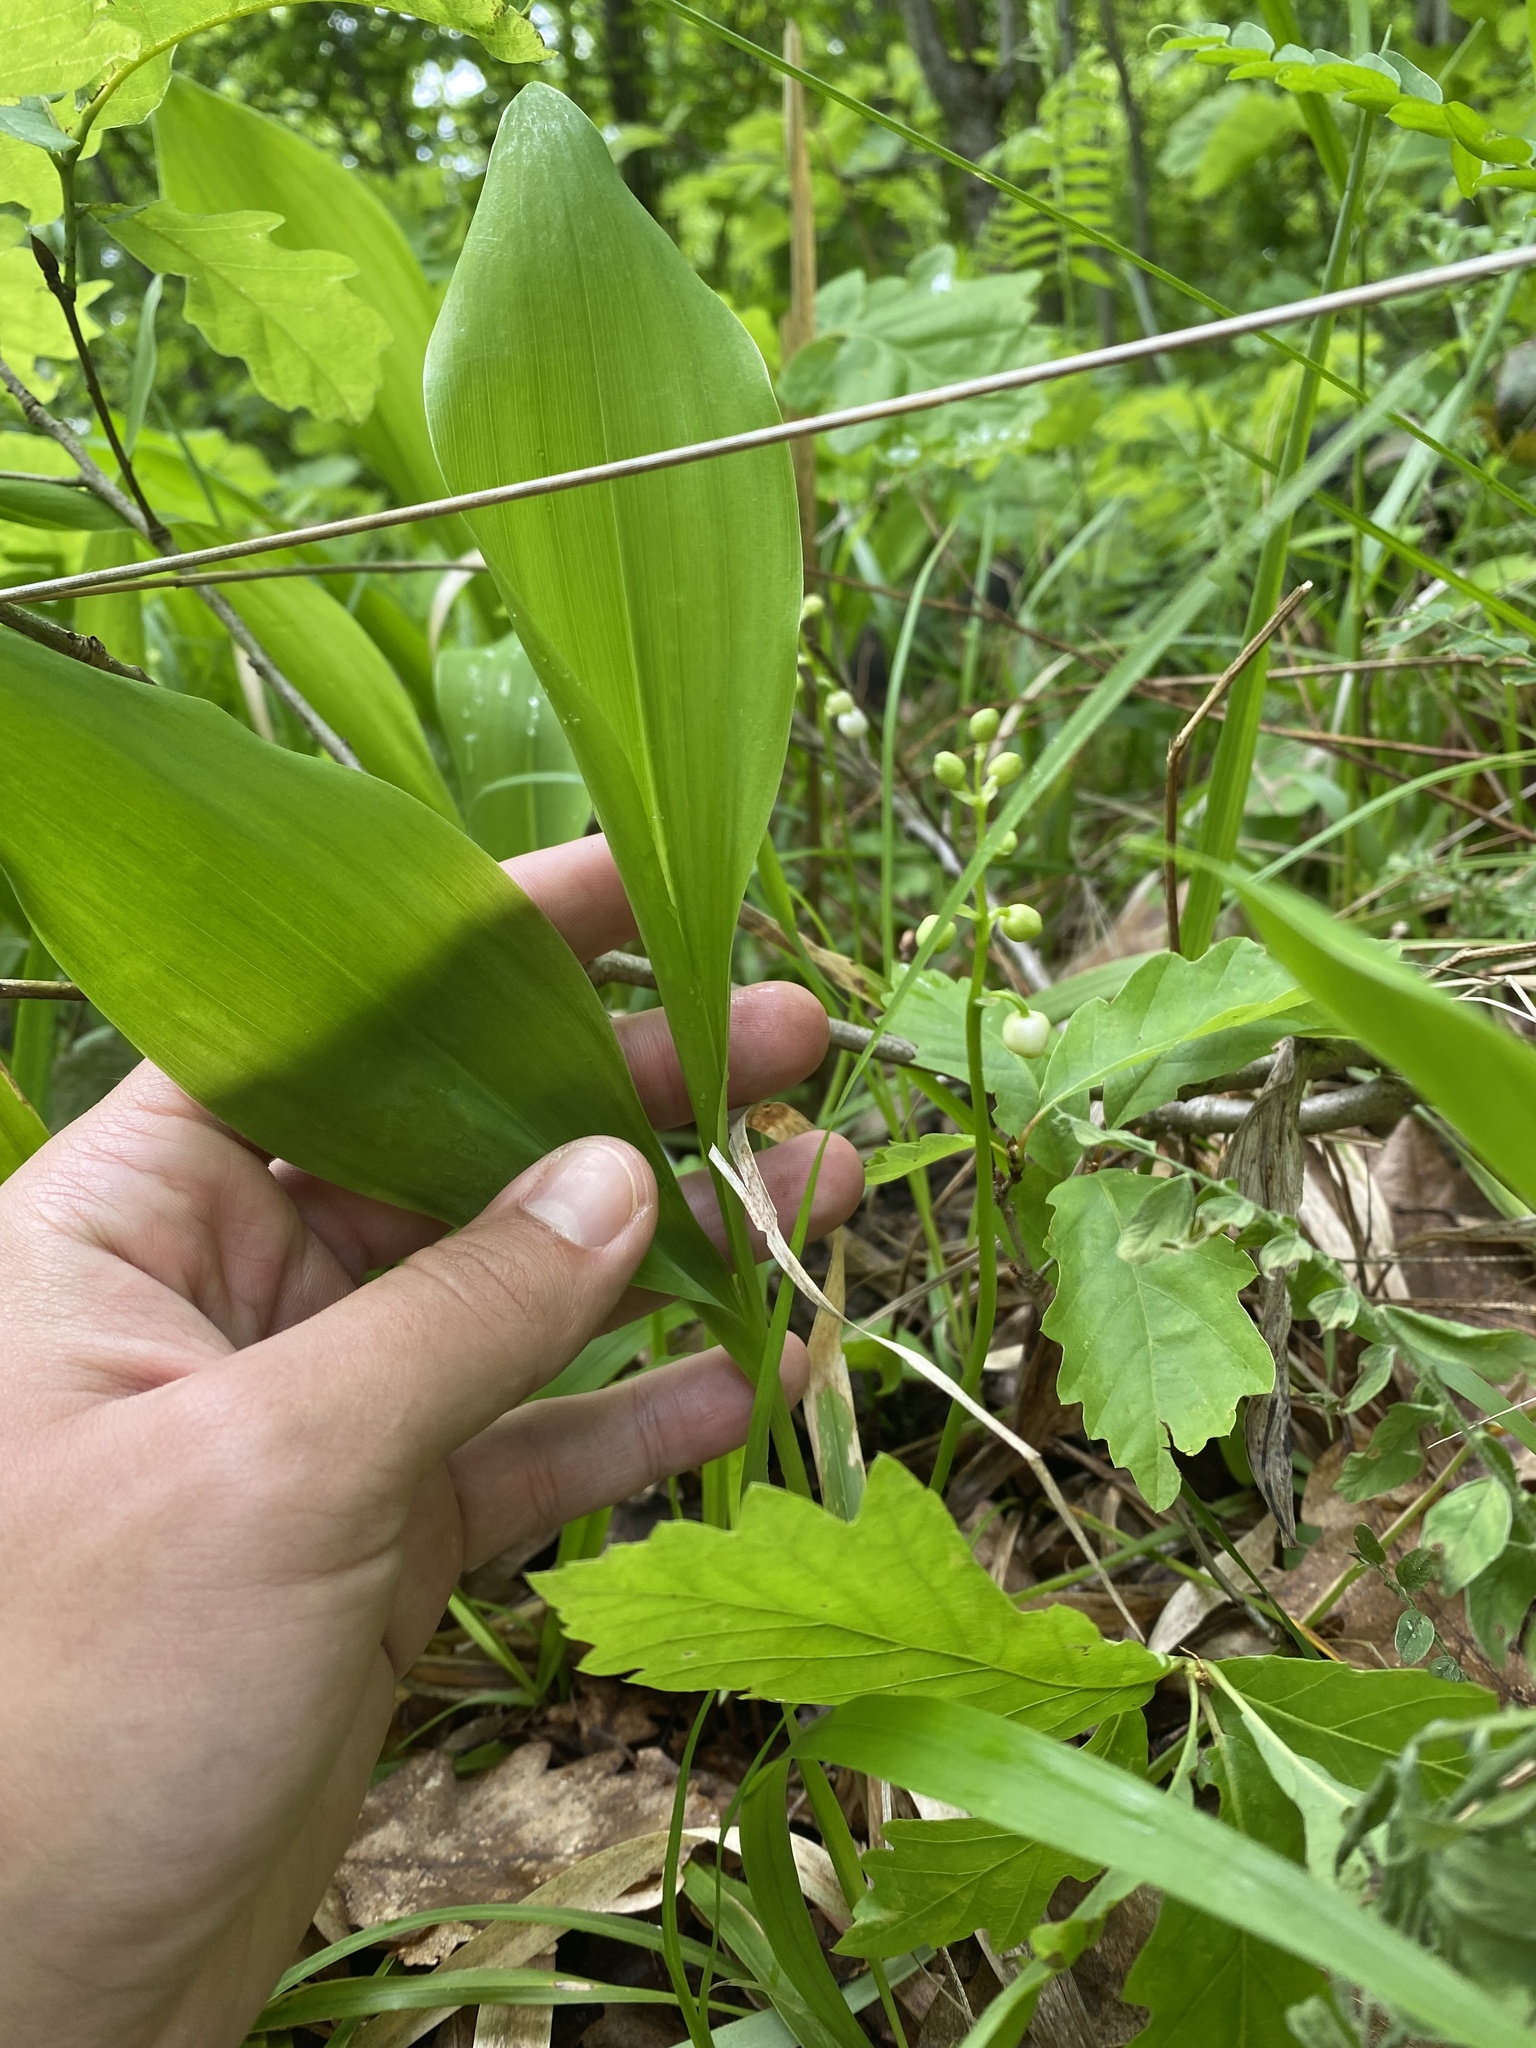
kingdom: Plantae
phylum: Tracheophyta
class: Liliopsida
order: Asparagales
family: Asparagaceae
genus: Convallaria
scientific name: Convallaria majalis
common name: Lily-of-the-valley
